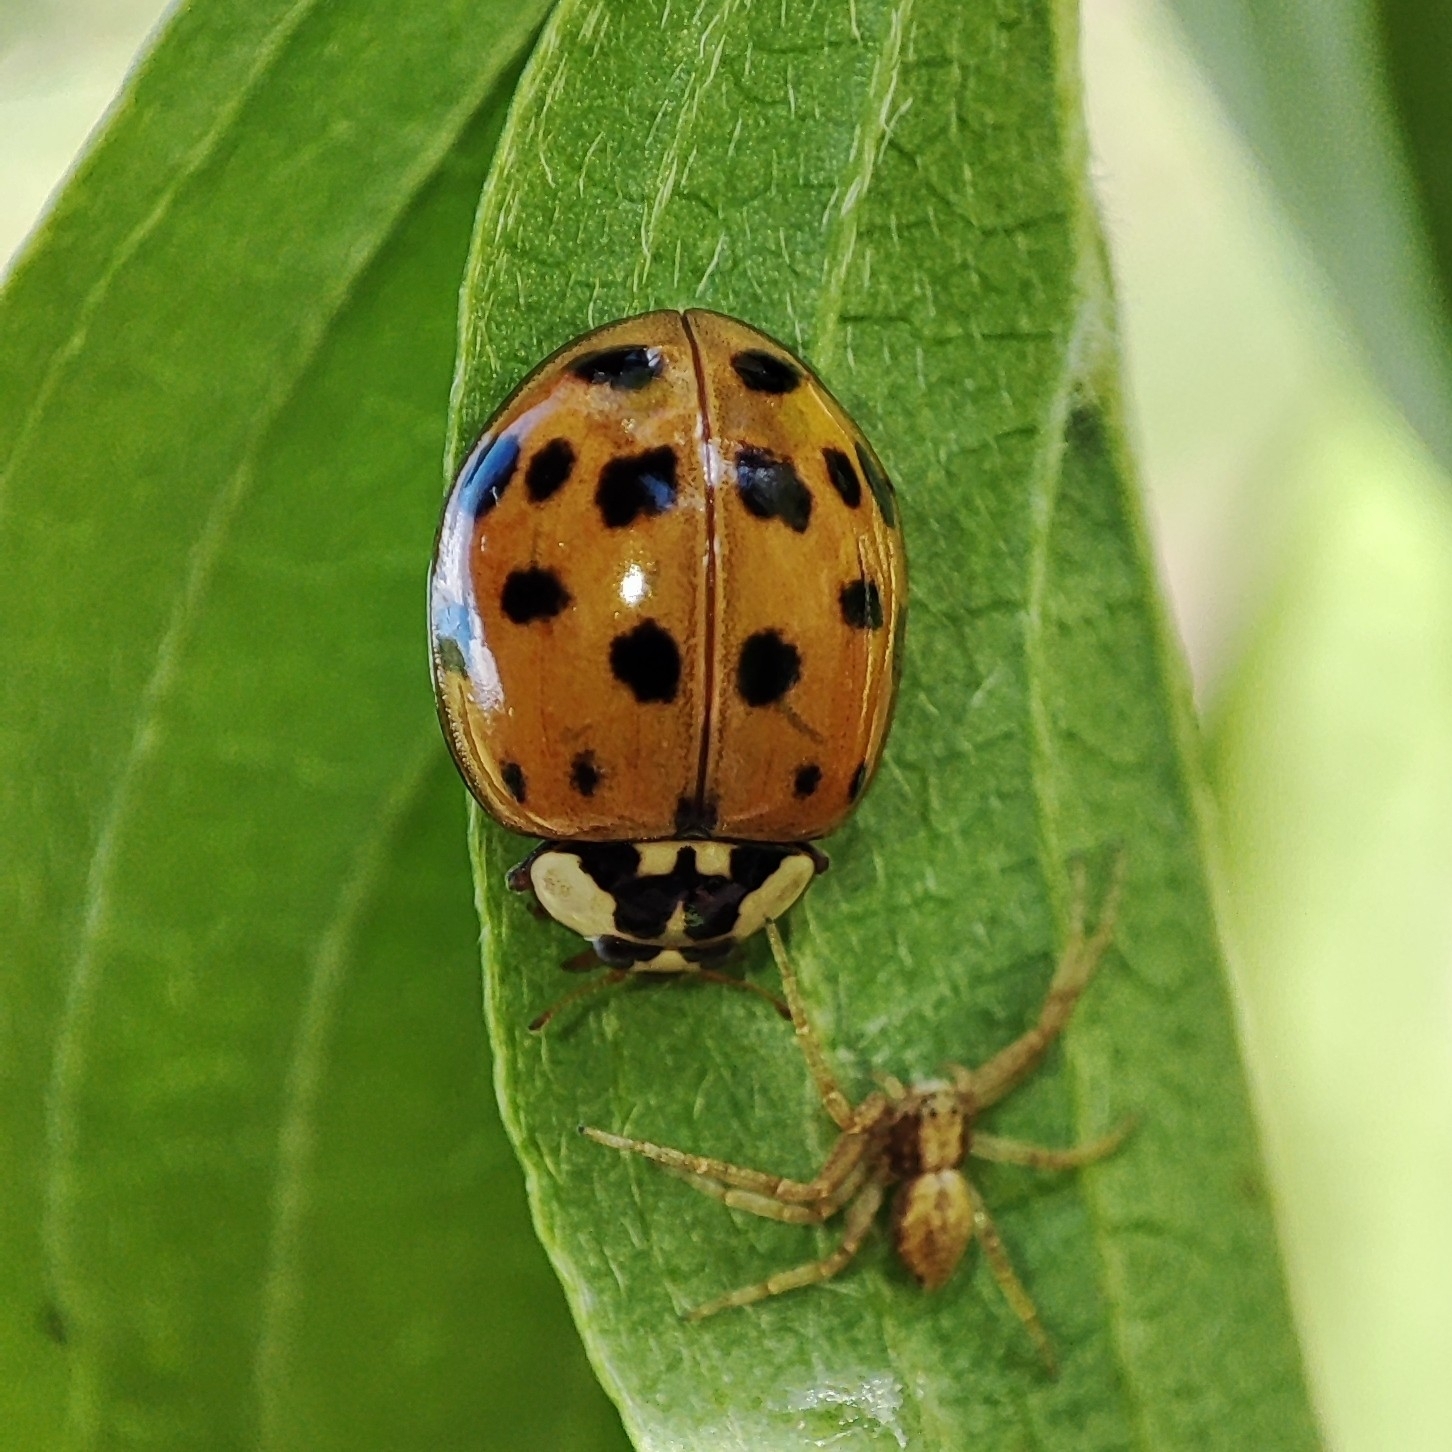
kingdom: Animalia
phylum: Arthropoda
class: Insecta
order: Coleoptera
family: Coccinellidae
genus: Harmonia
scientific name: Harmonia axyridis
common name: Harlequin ladybird
